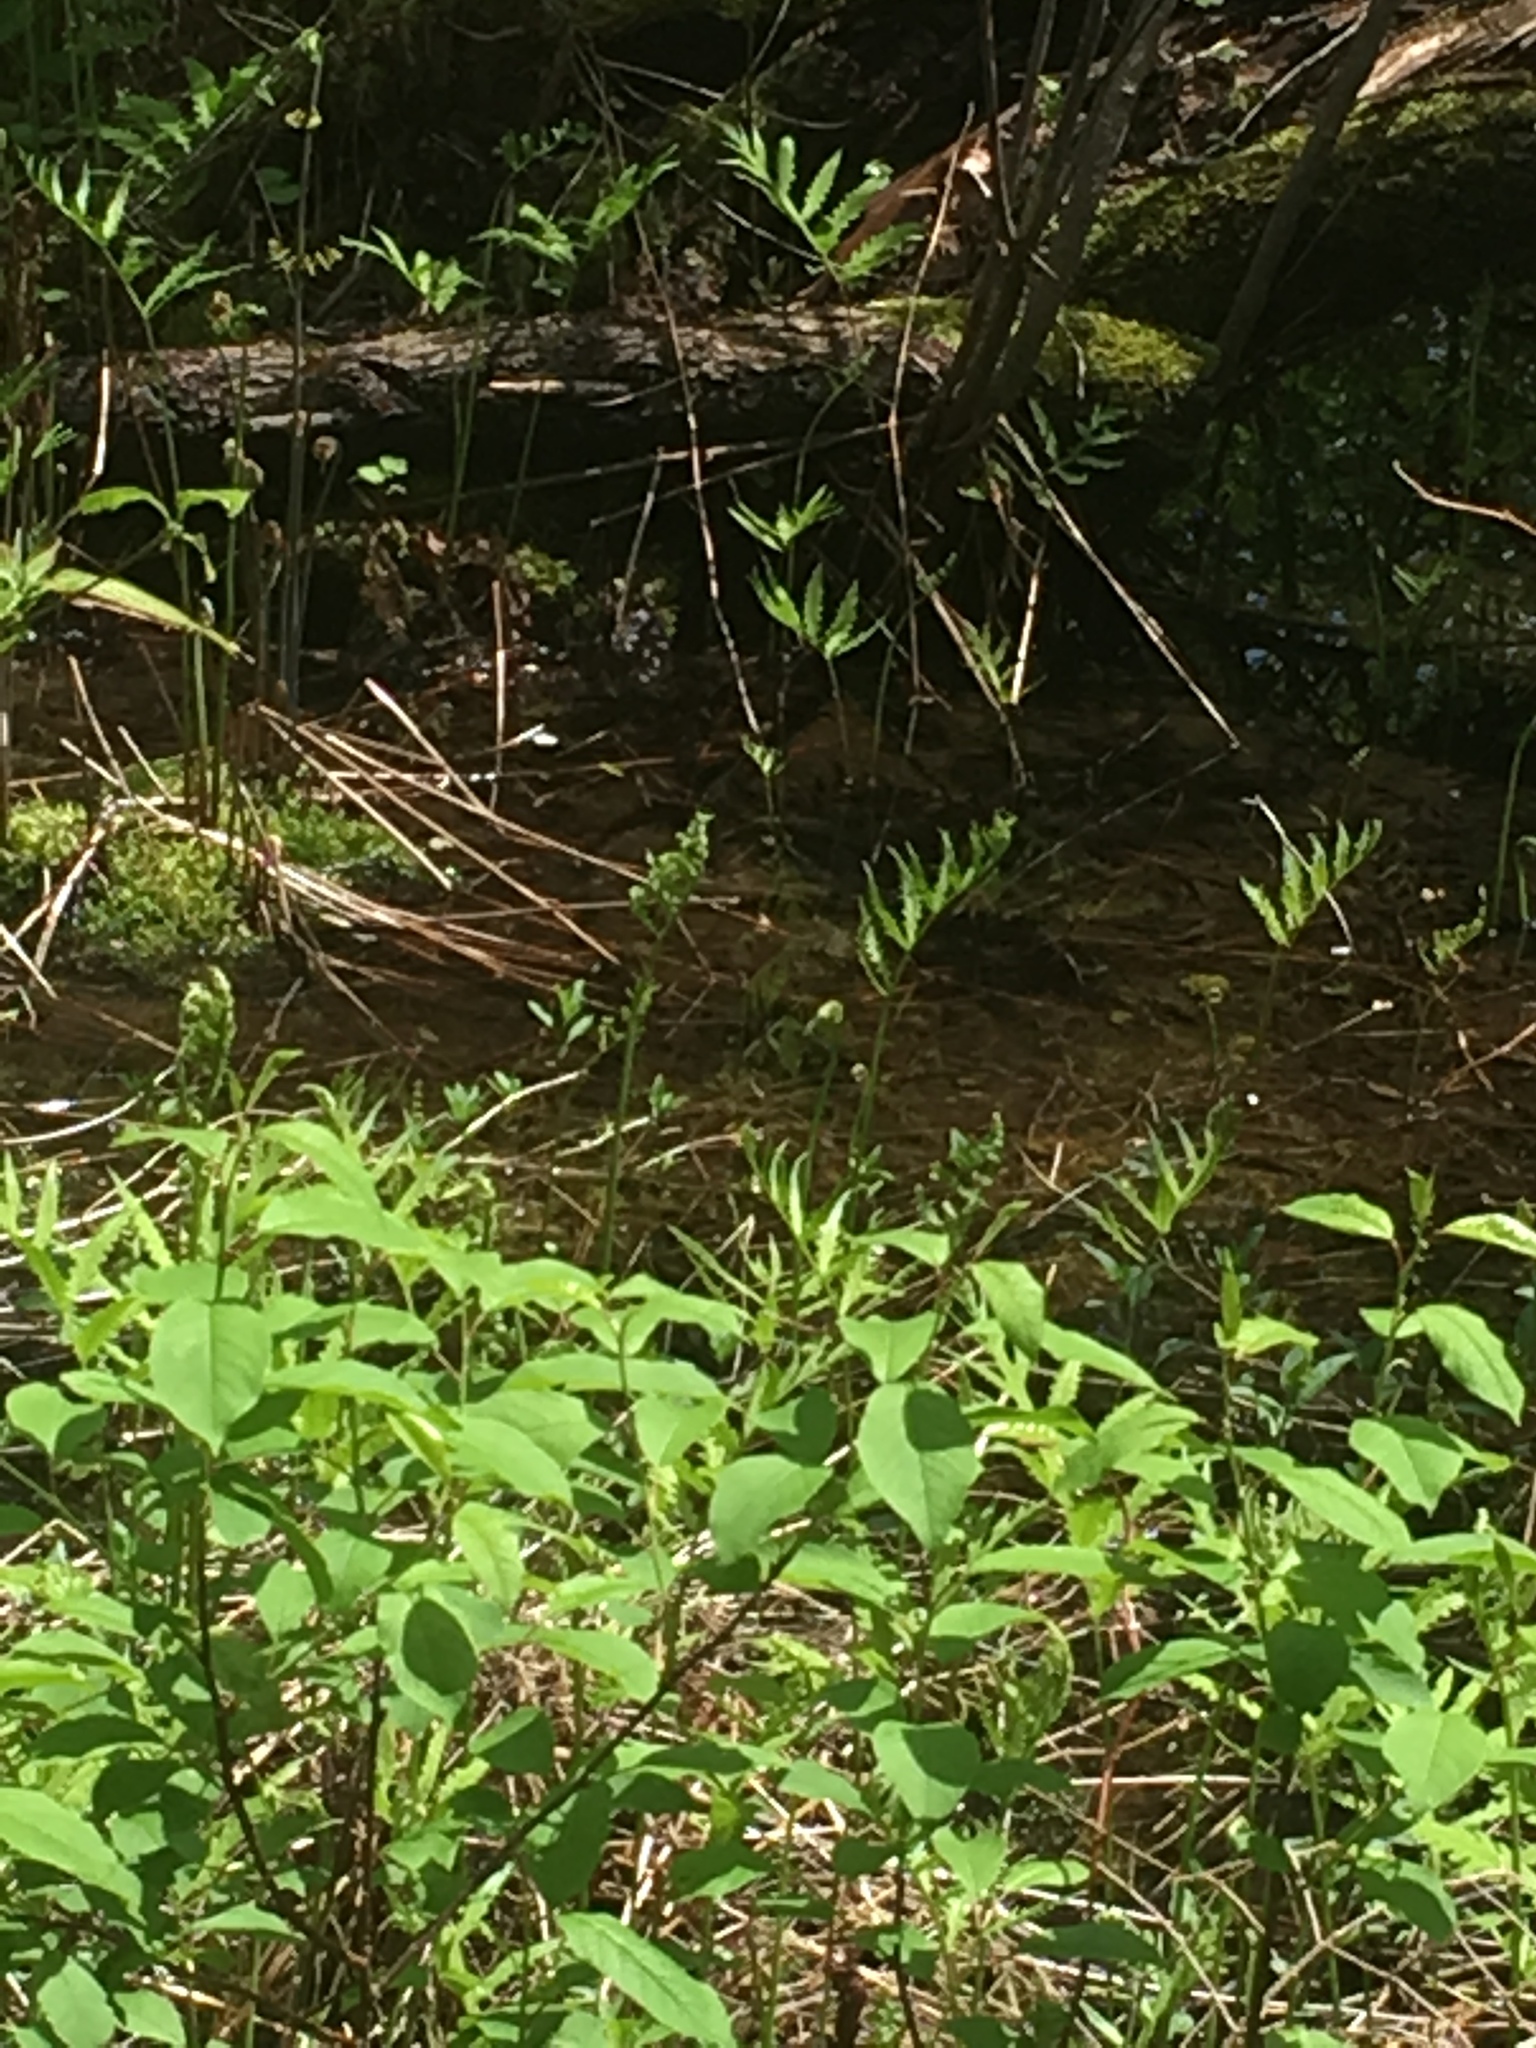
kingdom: Plantae
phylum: Tracheophyta
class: Polypodiopsida
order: Polypodiales
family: Onocleaceae
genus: Onoclea
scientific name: Onoclea sensibilis
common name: Sensitive fern
